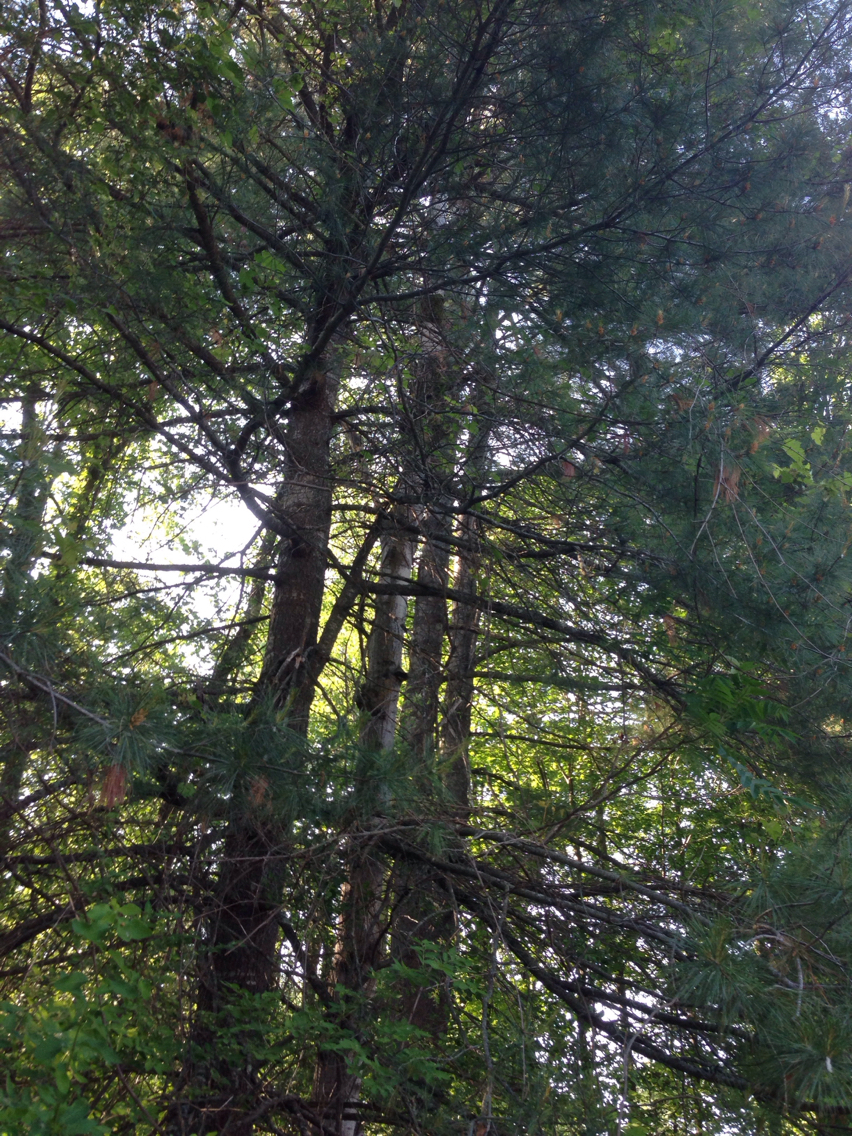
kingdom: Plantae
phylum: Tracheophyta
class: Pinopsida
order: Pinales
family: Pinaceae
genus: Pinus
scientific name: Pinus strobus
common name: Weymouth pine
